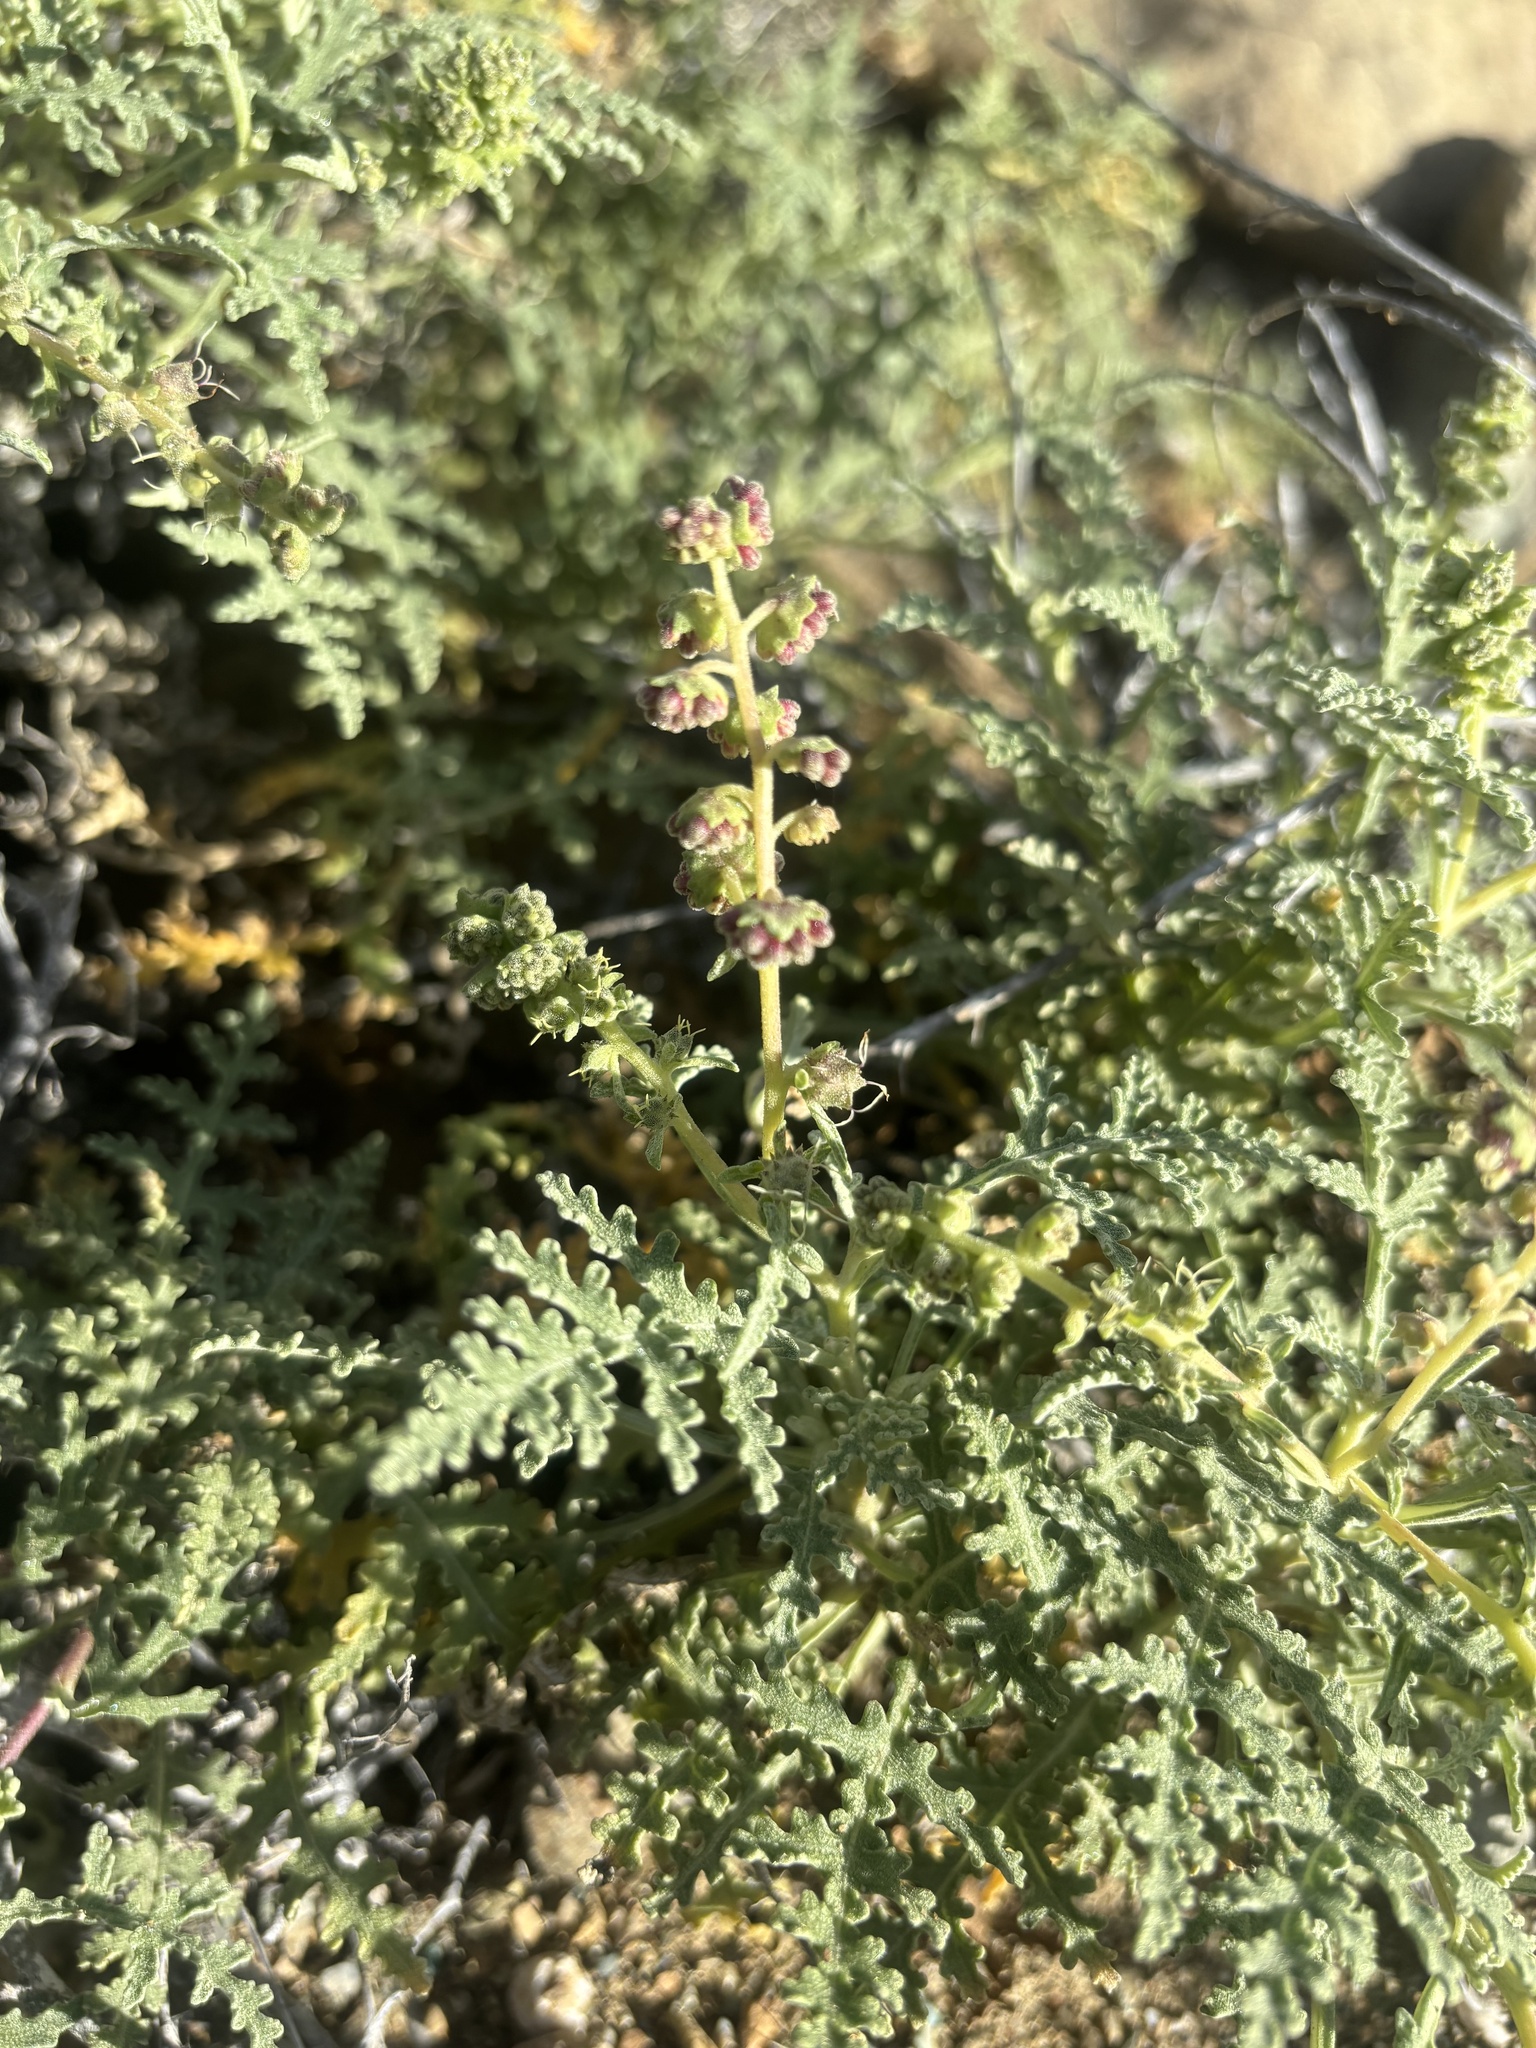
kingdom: Plantae
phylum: Tracheophyta
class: Magnoliopsida
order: Asterales
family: Asteraceae
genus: Ambrosia
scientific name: Ambrosia camphorata
